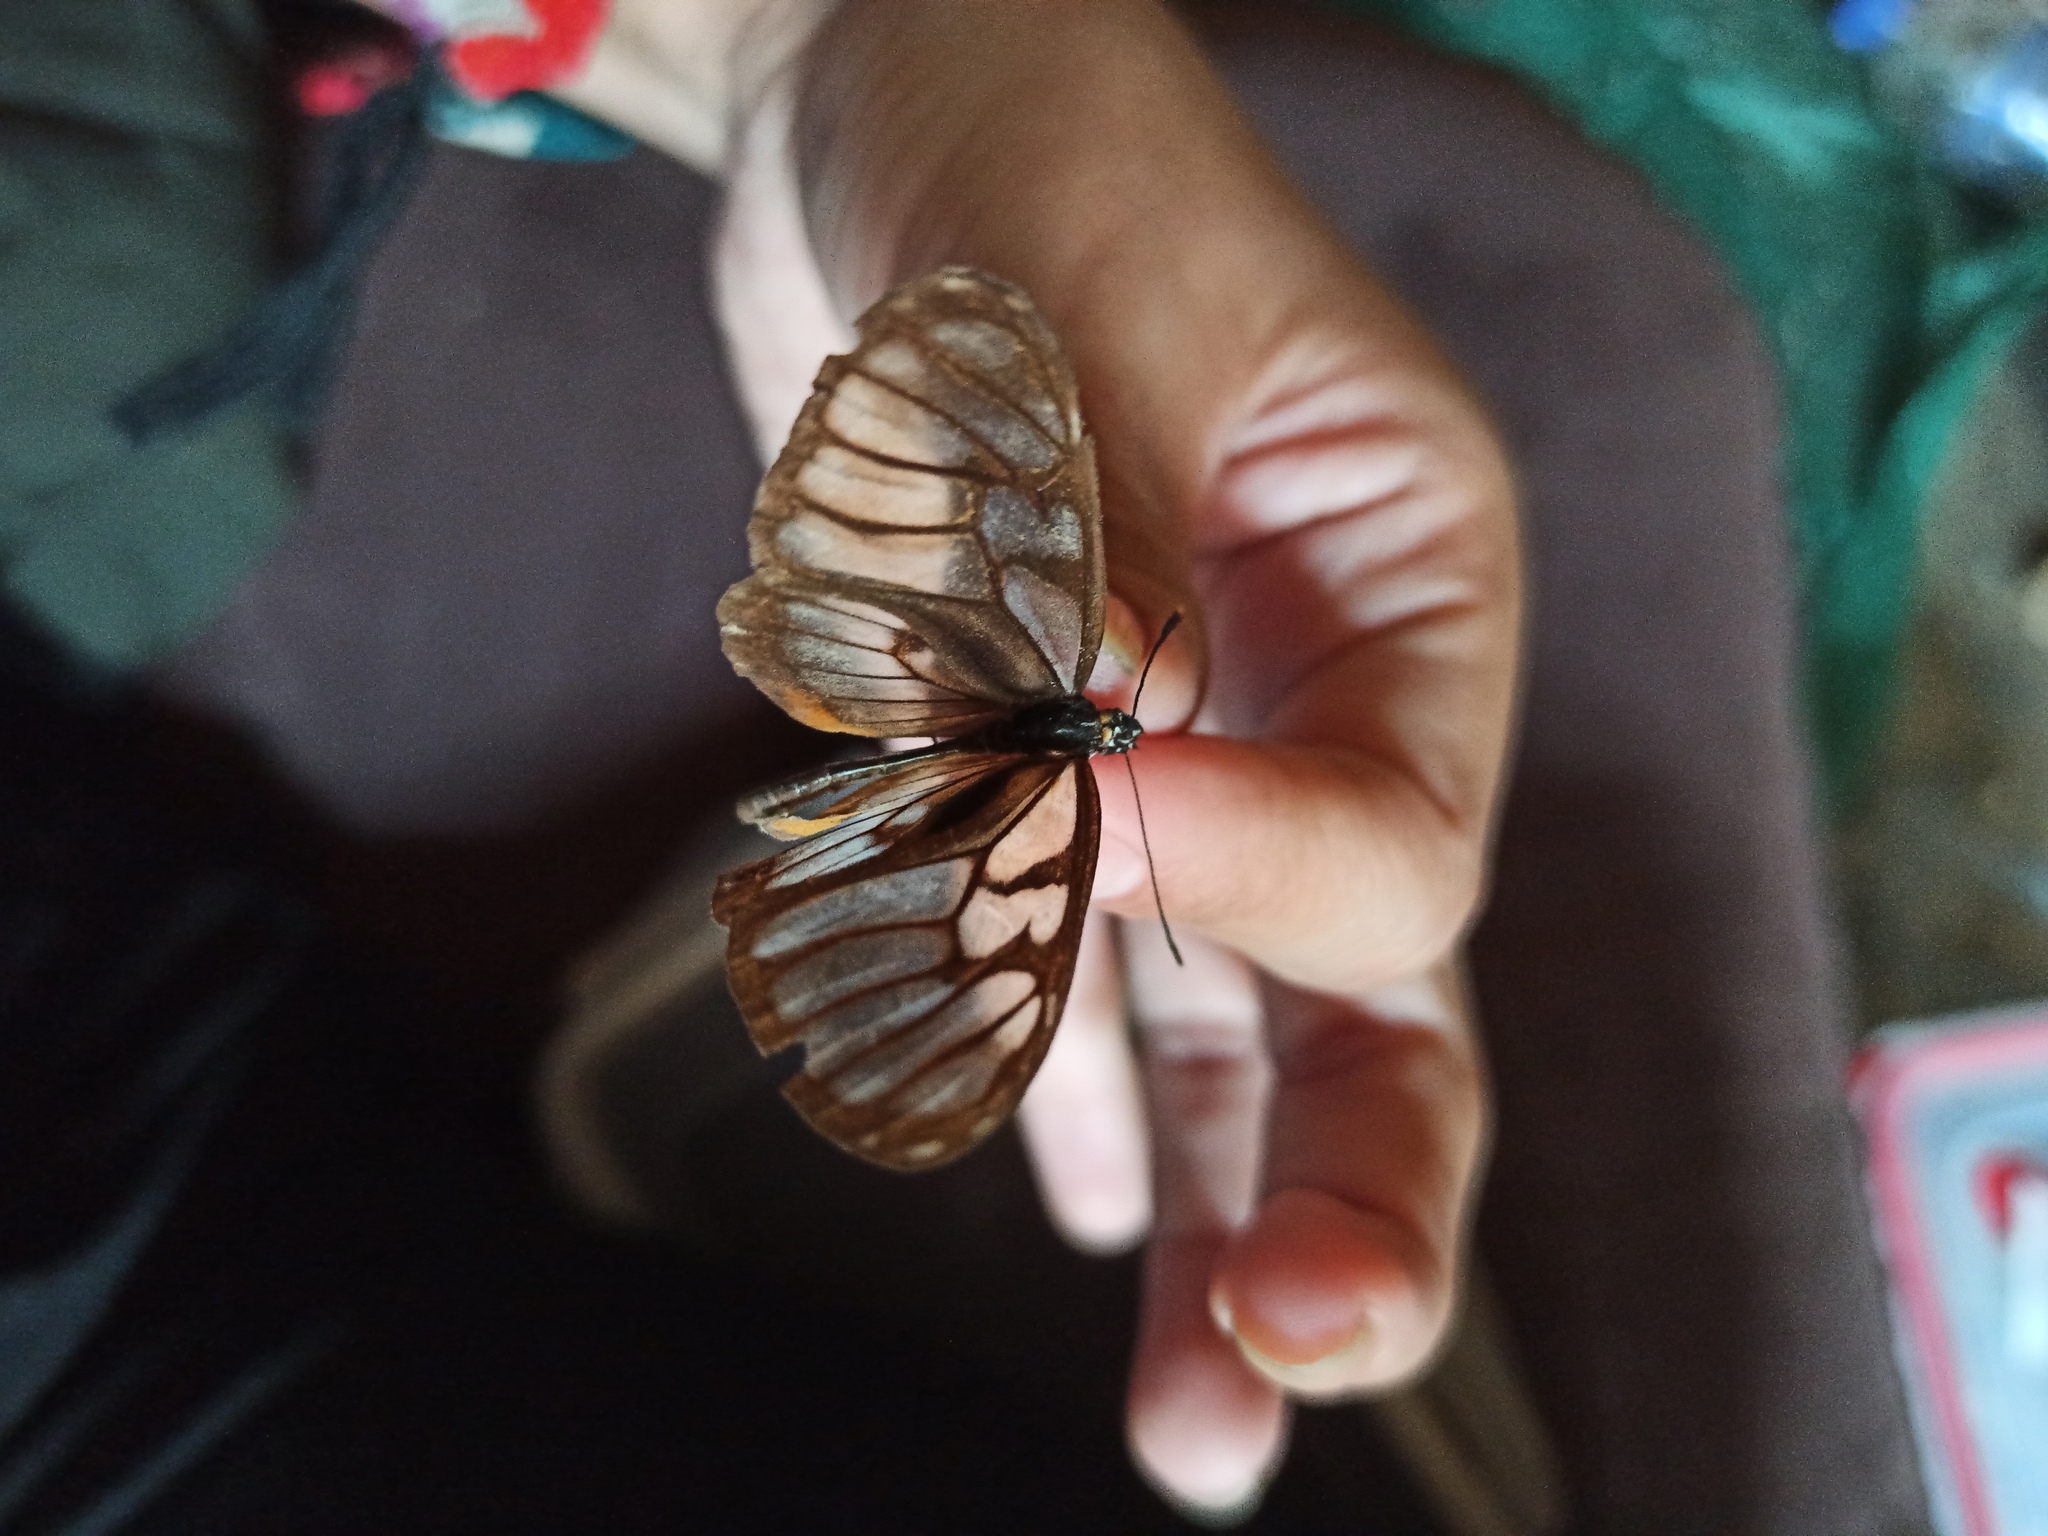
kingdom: Animalia
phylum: Arthropoda
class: Insecta
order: Lepidoptera
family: Nymphalidae
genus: Ithomia
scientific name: Ithomia
